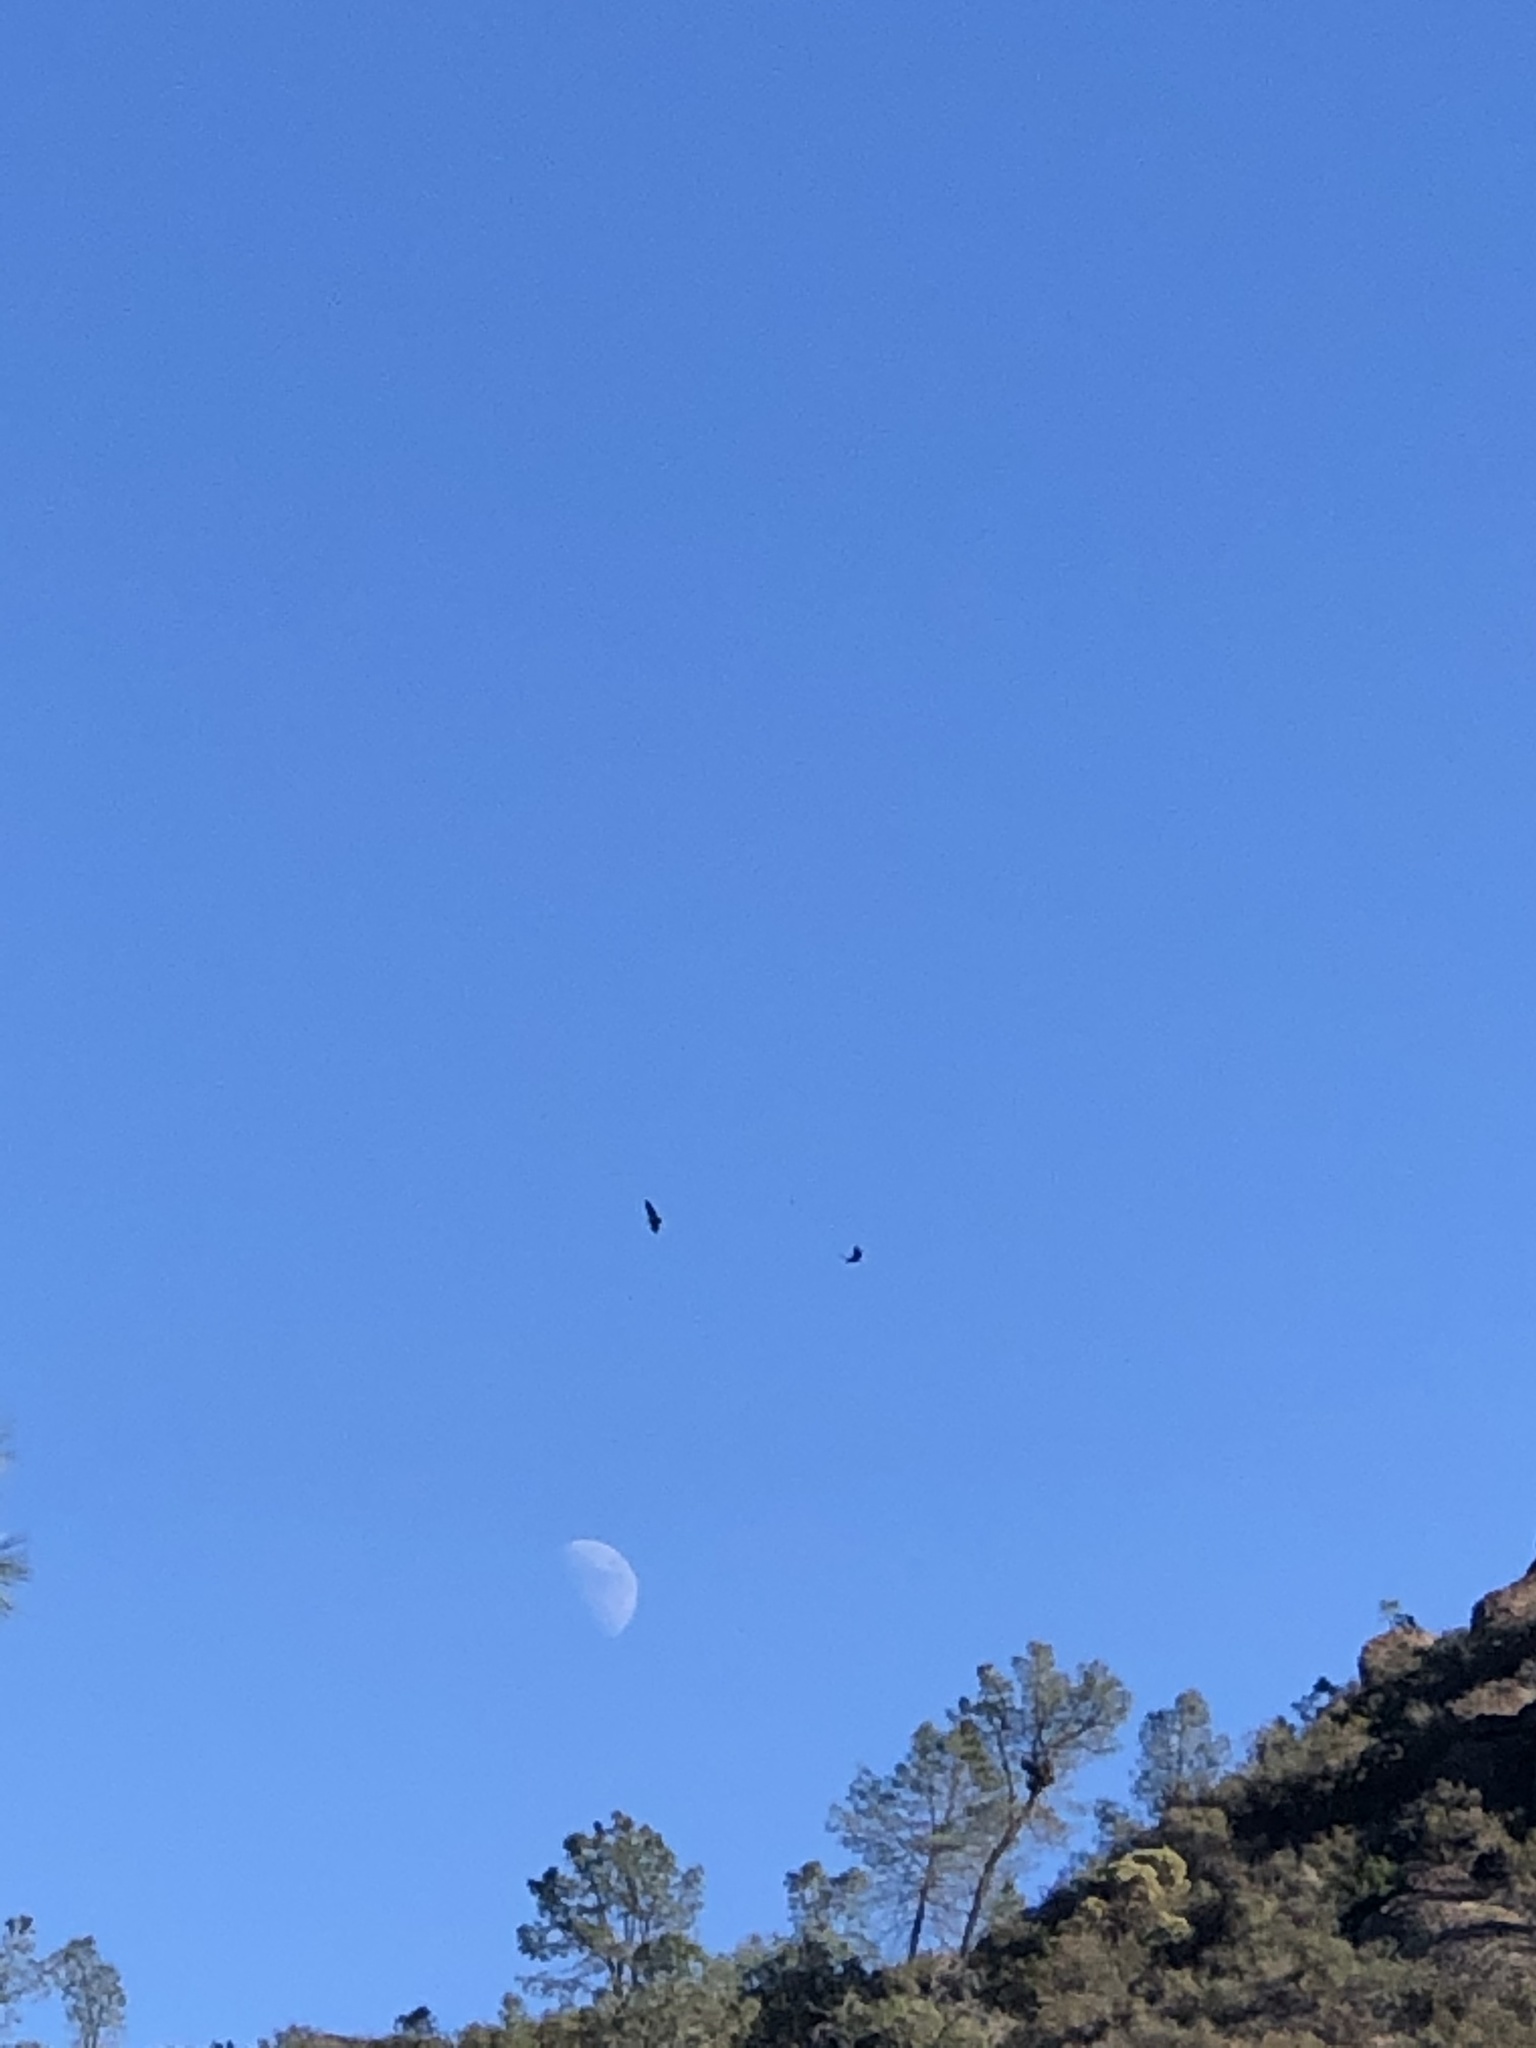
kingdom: Animalia
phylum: Chordata
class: Aves
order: Accipitriformes
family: Cathartidae
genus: Gymnogyps
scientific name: Gymnogyps californianus
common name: California condor
